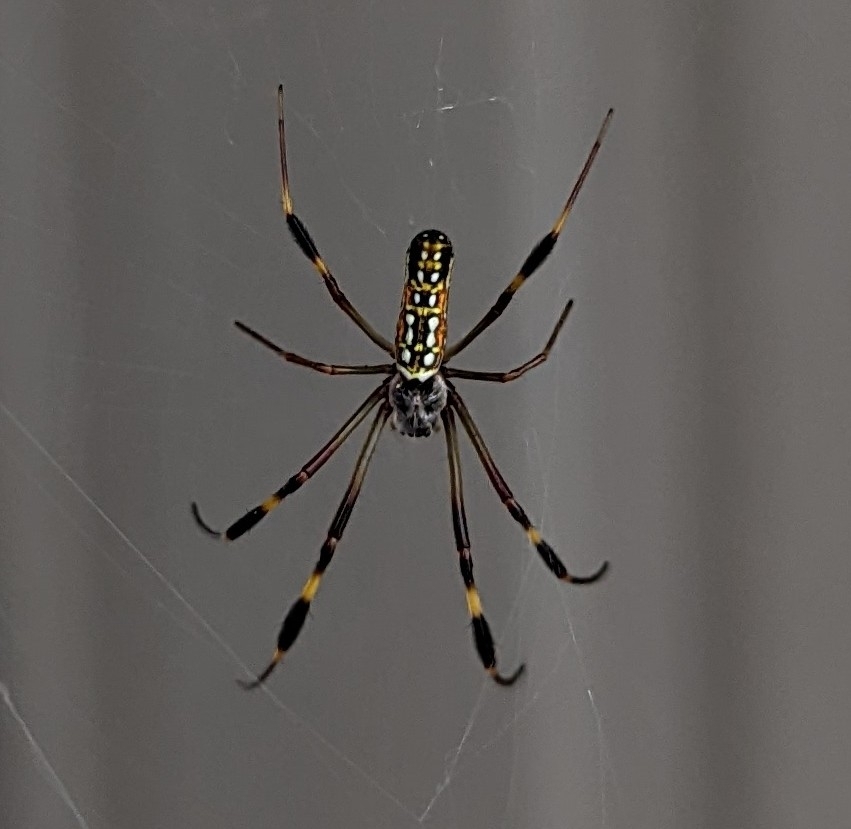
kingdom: Animalia
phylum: Arthropoda
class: Arachnida
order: Araneae
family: Araneidae
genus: Trichonephila
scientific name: Trichonephila clavipes
